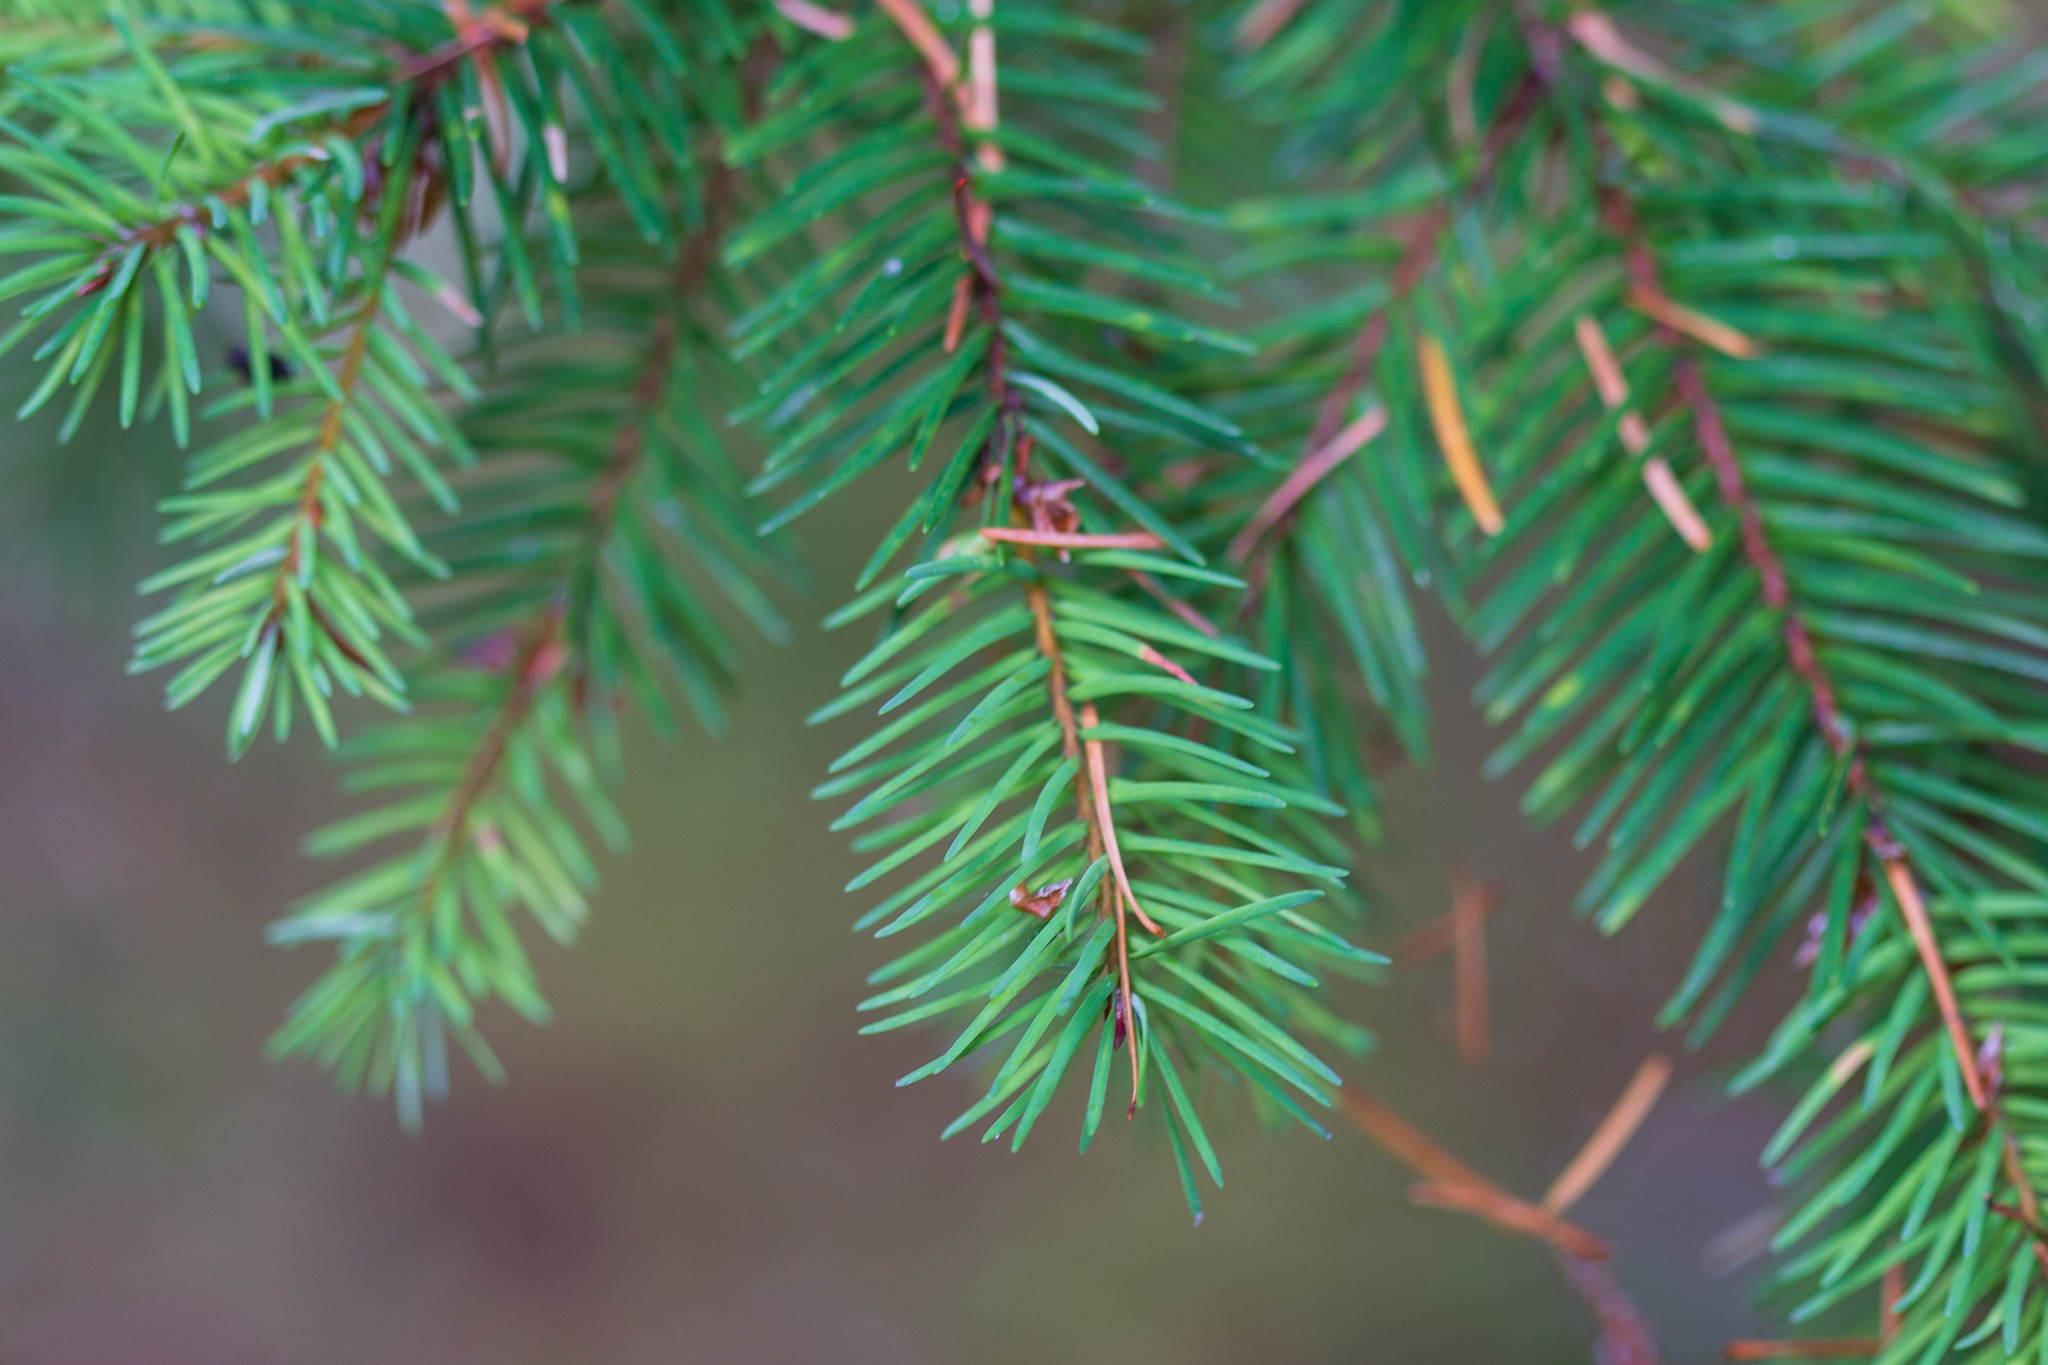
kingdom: Plantae
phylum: Tracheophyta
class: Pinopsida
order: Pinales
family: Pinaceae
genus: Pseudotsuga
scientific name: Pseudotsuga menziesii
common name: Douglas fir
